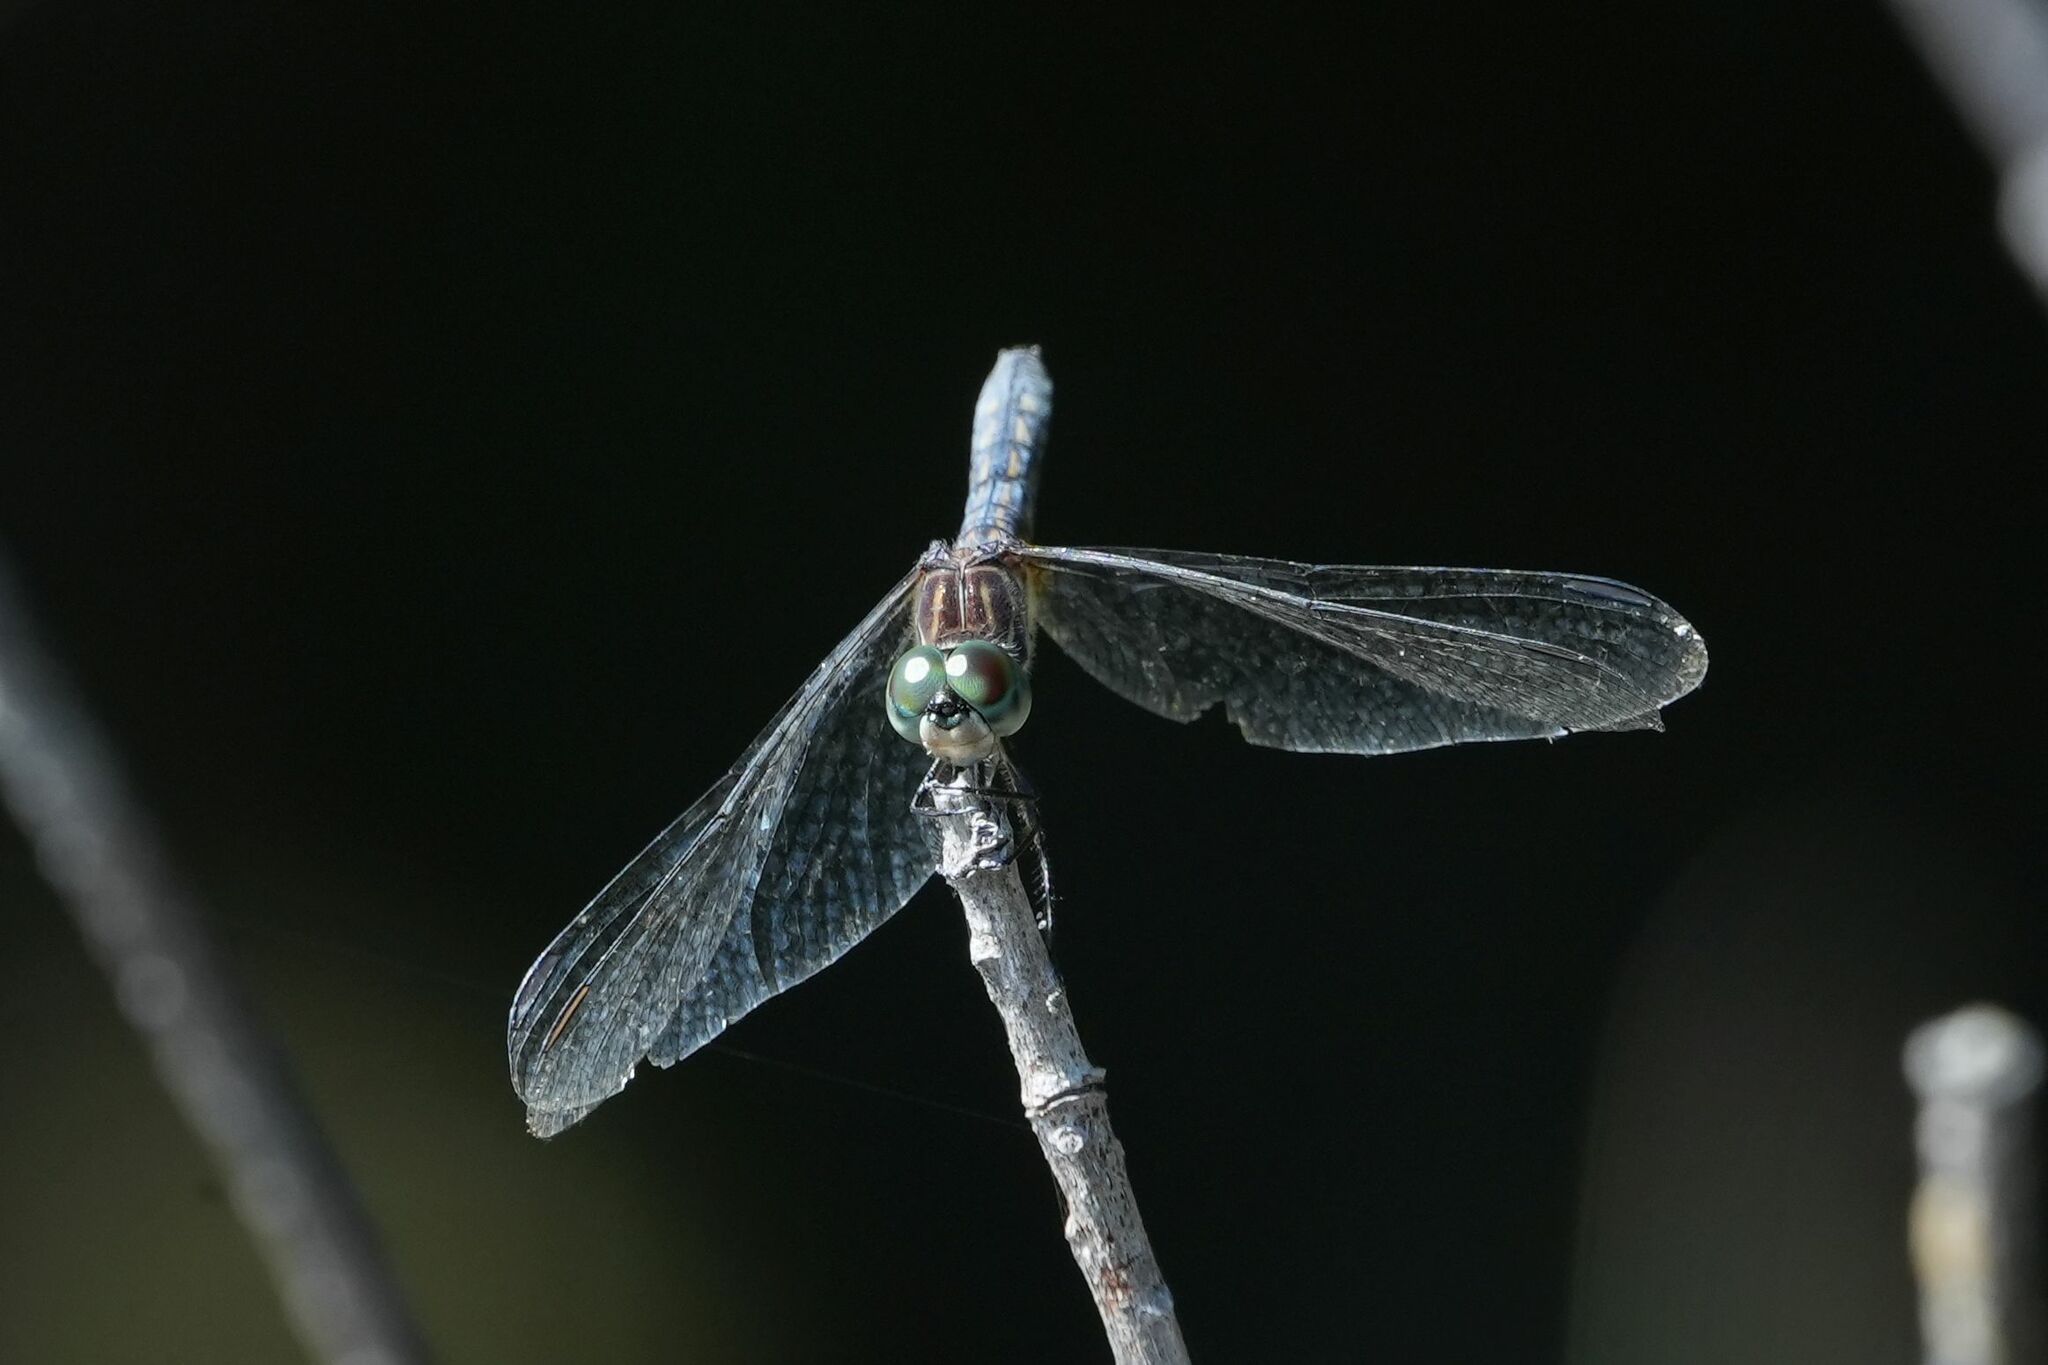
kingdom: Animalia
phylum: Arthropoda
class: Insecta
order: Odonata
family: Libellulidae
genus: Pachydiplax
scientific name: Pachydiplax longipennis
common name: Blue dasher
